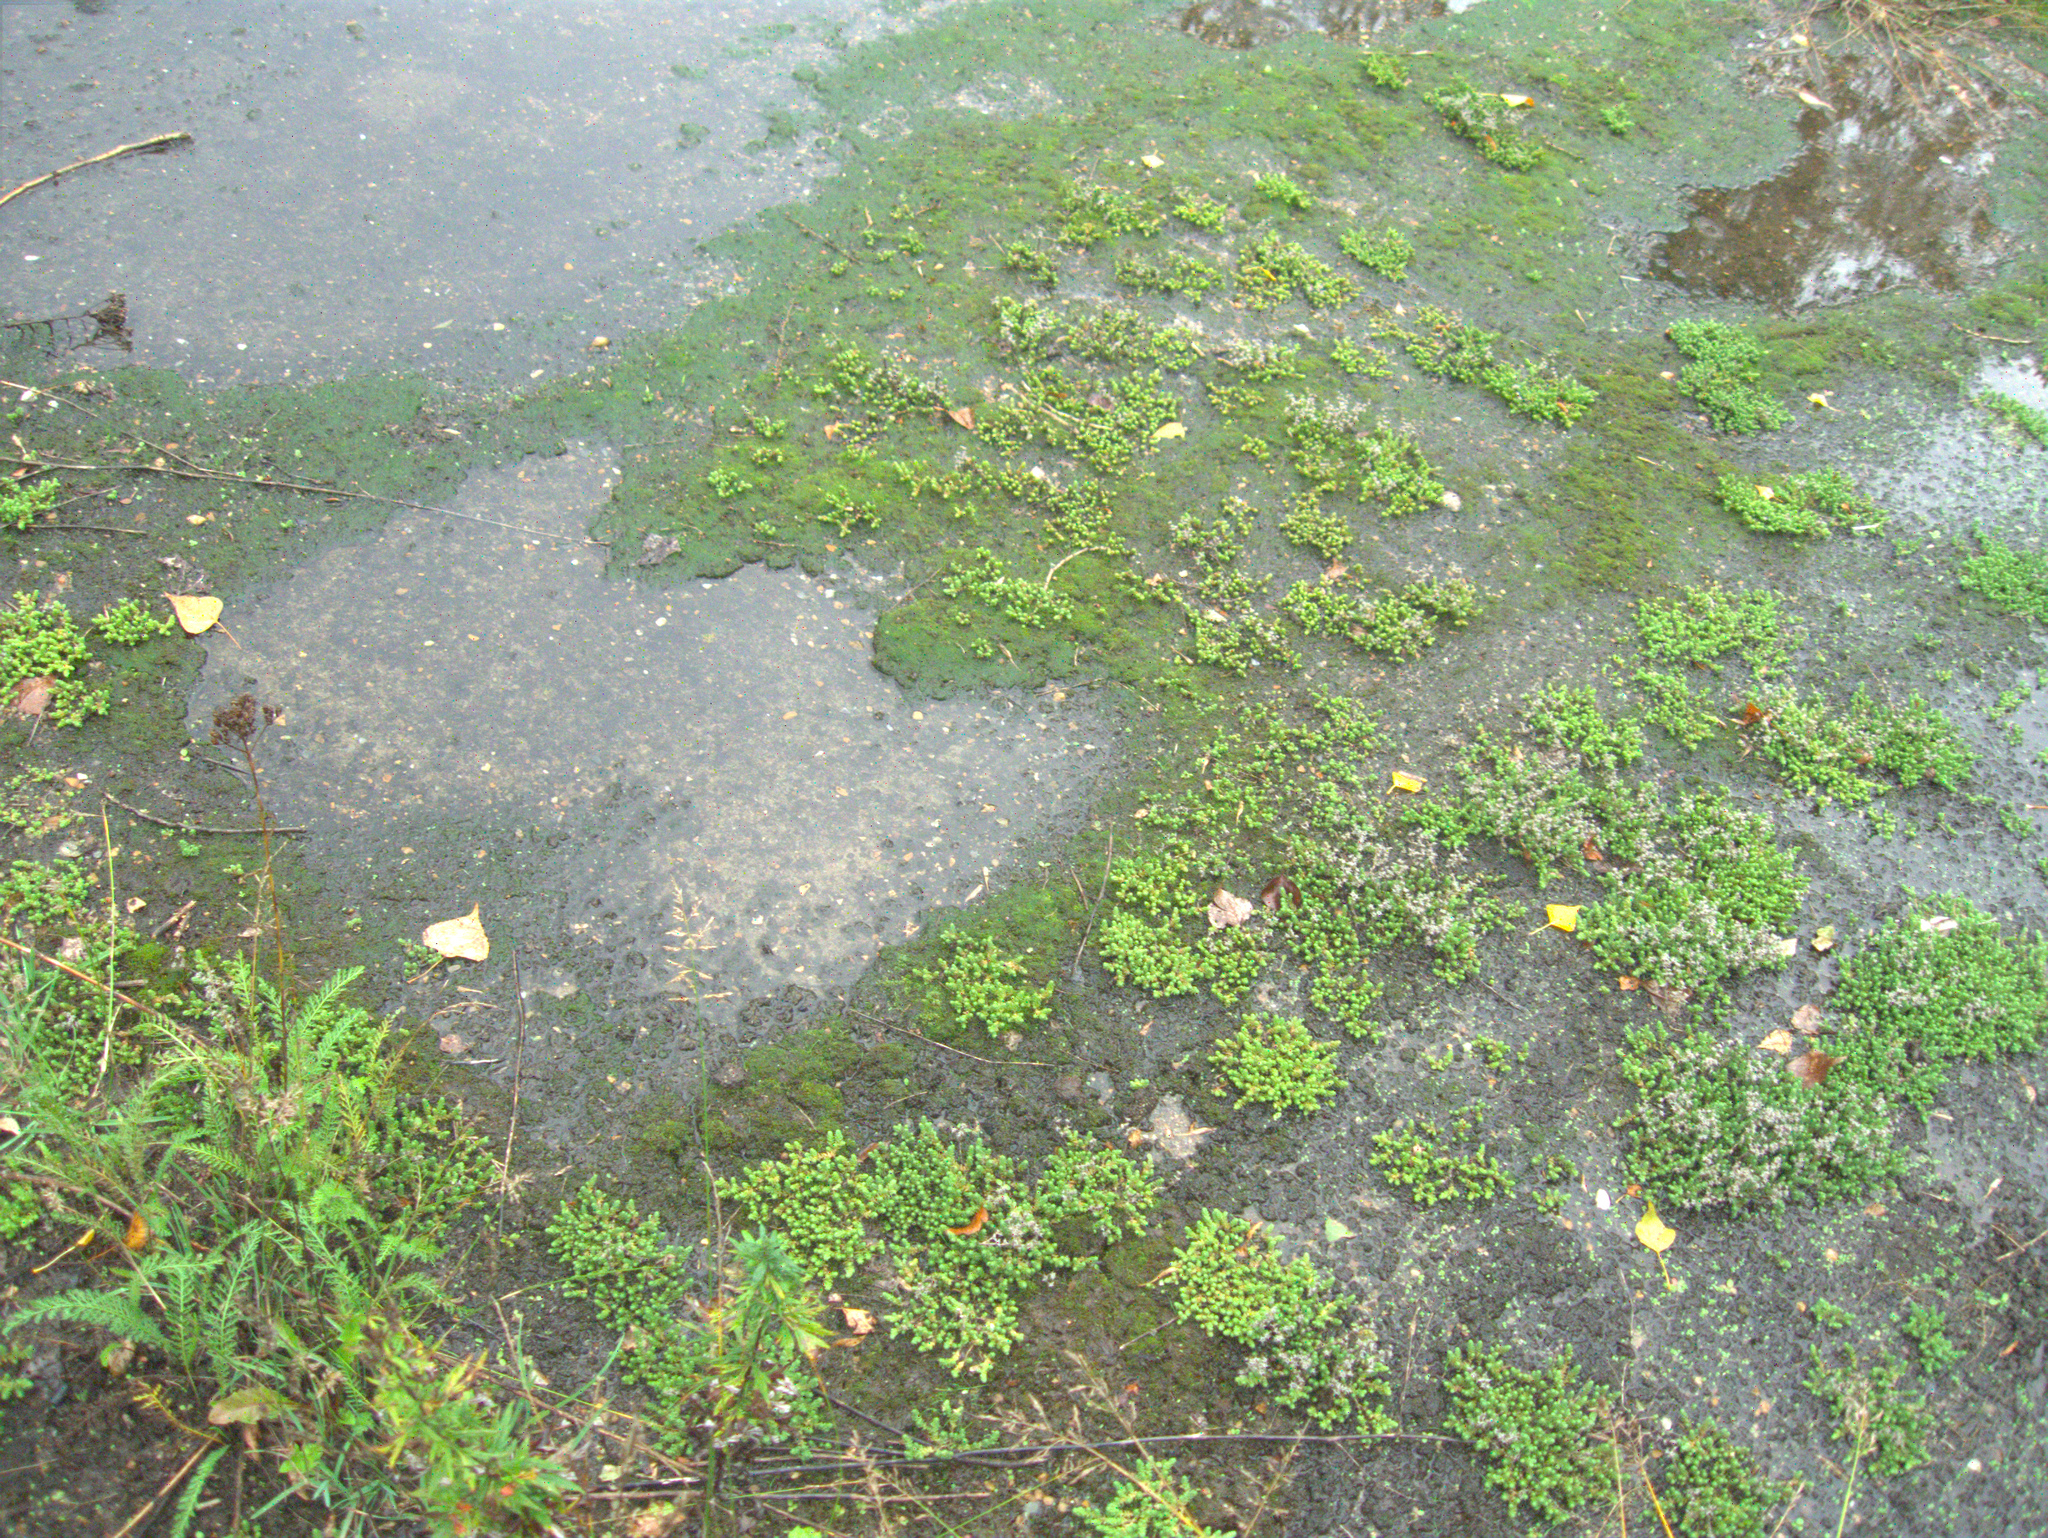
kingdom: Plantae
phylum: Tracheophyta
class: Magnoliopsida
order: Saxifragales
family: Crassulaceae
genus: Sedum
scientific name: Sedum acre
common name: Biting stonecrop
